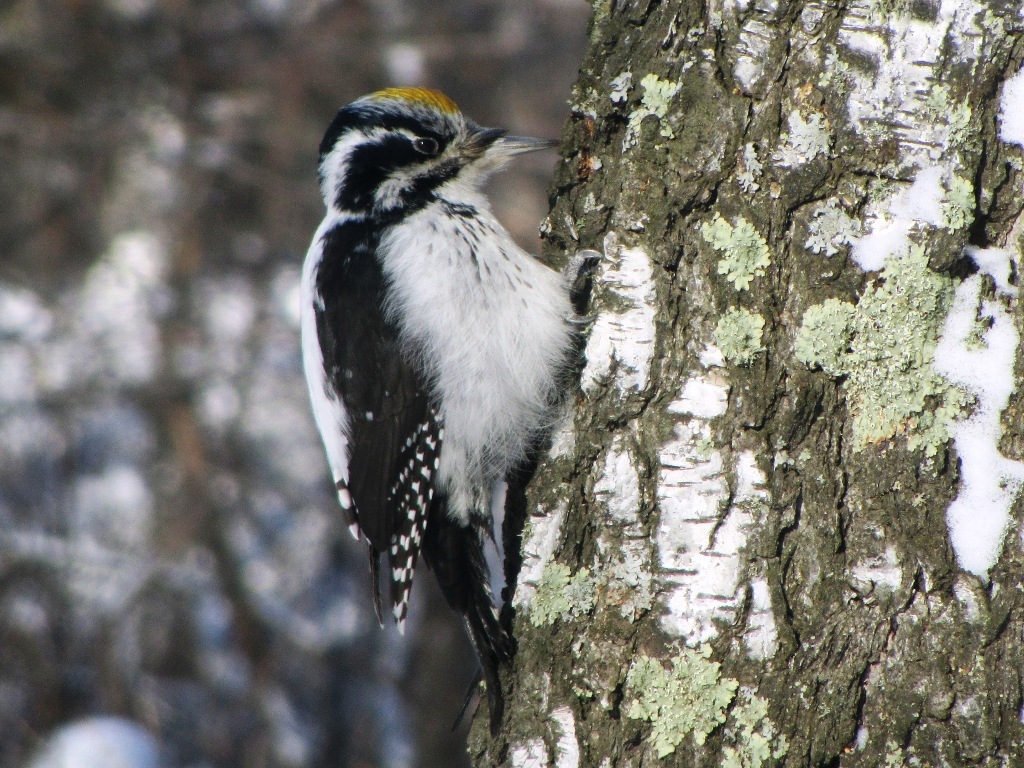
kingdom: Animalia
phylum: Chordata
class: Aves
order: Piciformes
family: Picidae
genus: Picoides
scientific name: Picoides tridactylus
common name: Eurasian three-toed woodpecker
